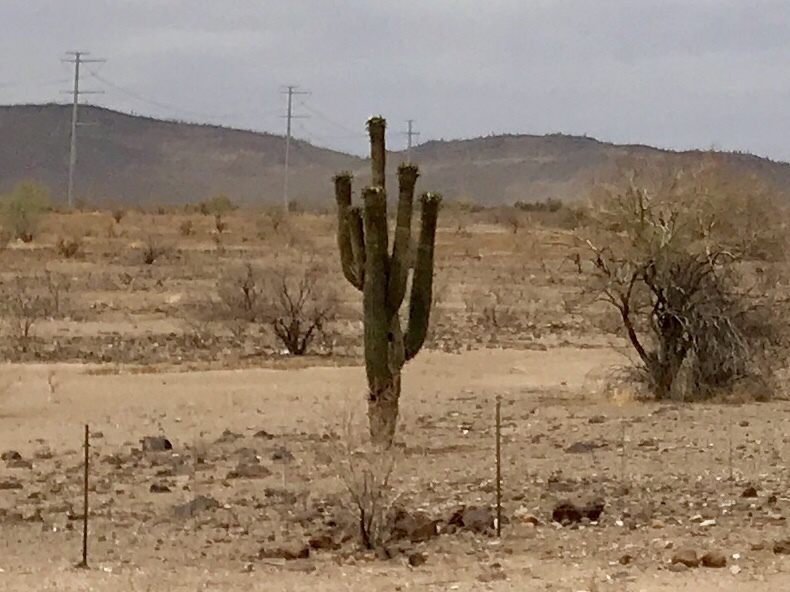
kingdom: Plantae
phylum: Tracheophyta
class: Magnoliopsida
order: Caryophyllales
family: Cactaceae
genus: Carnegiea
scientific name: Carnegiea gigantea
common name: Saguaro
